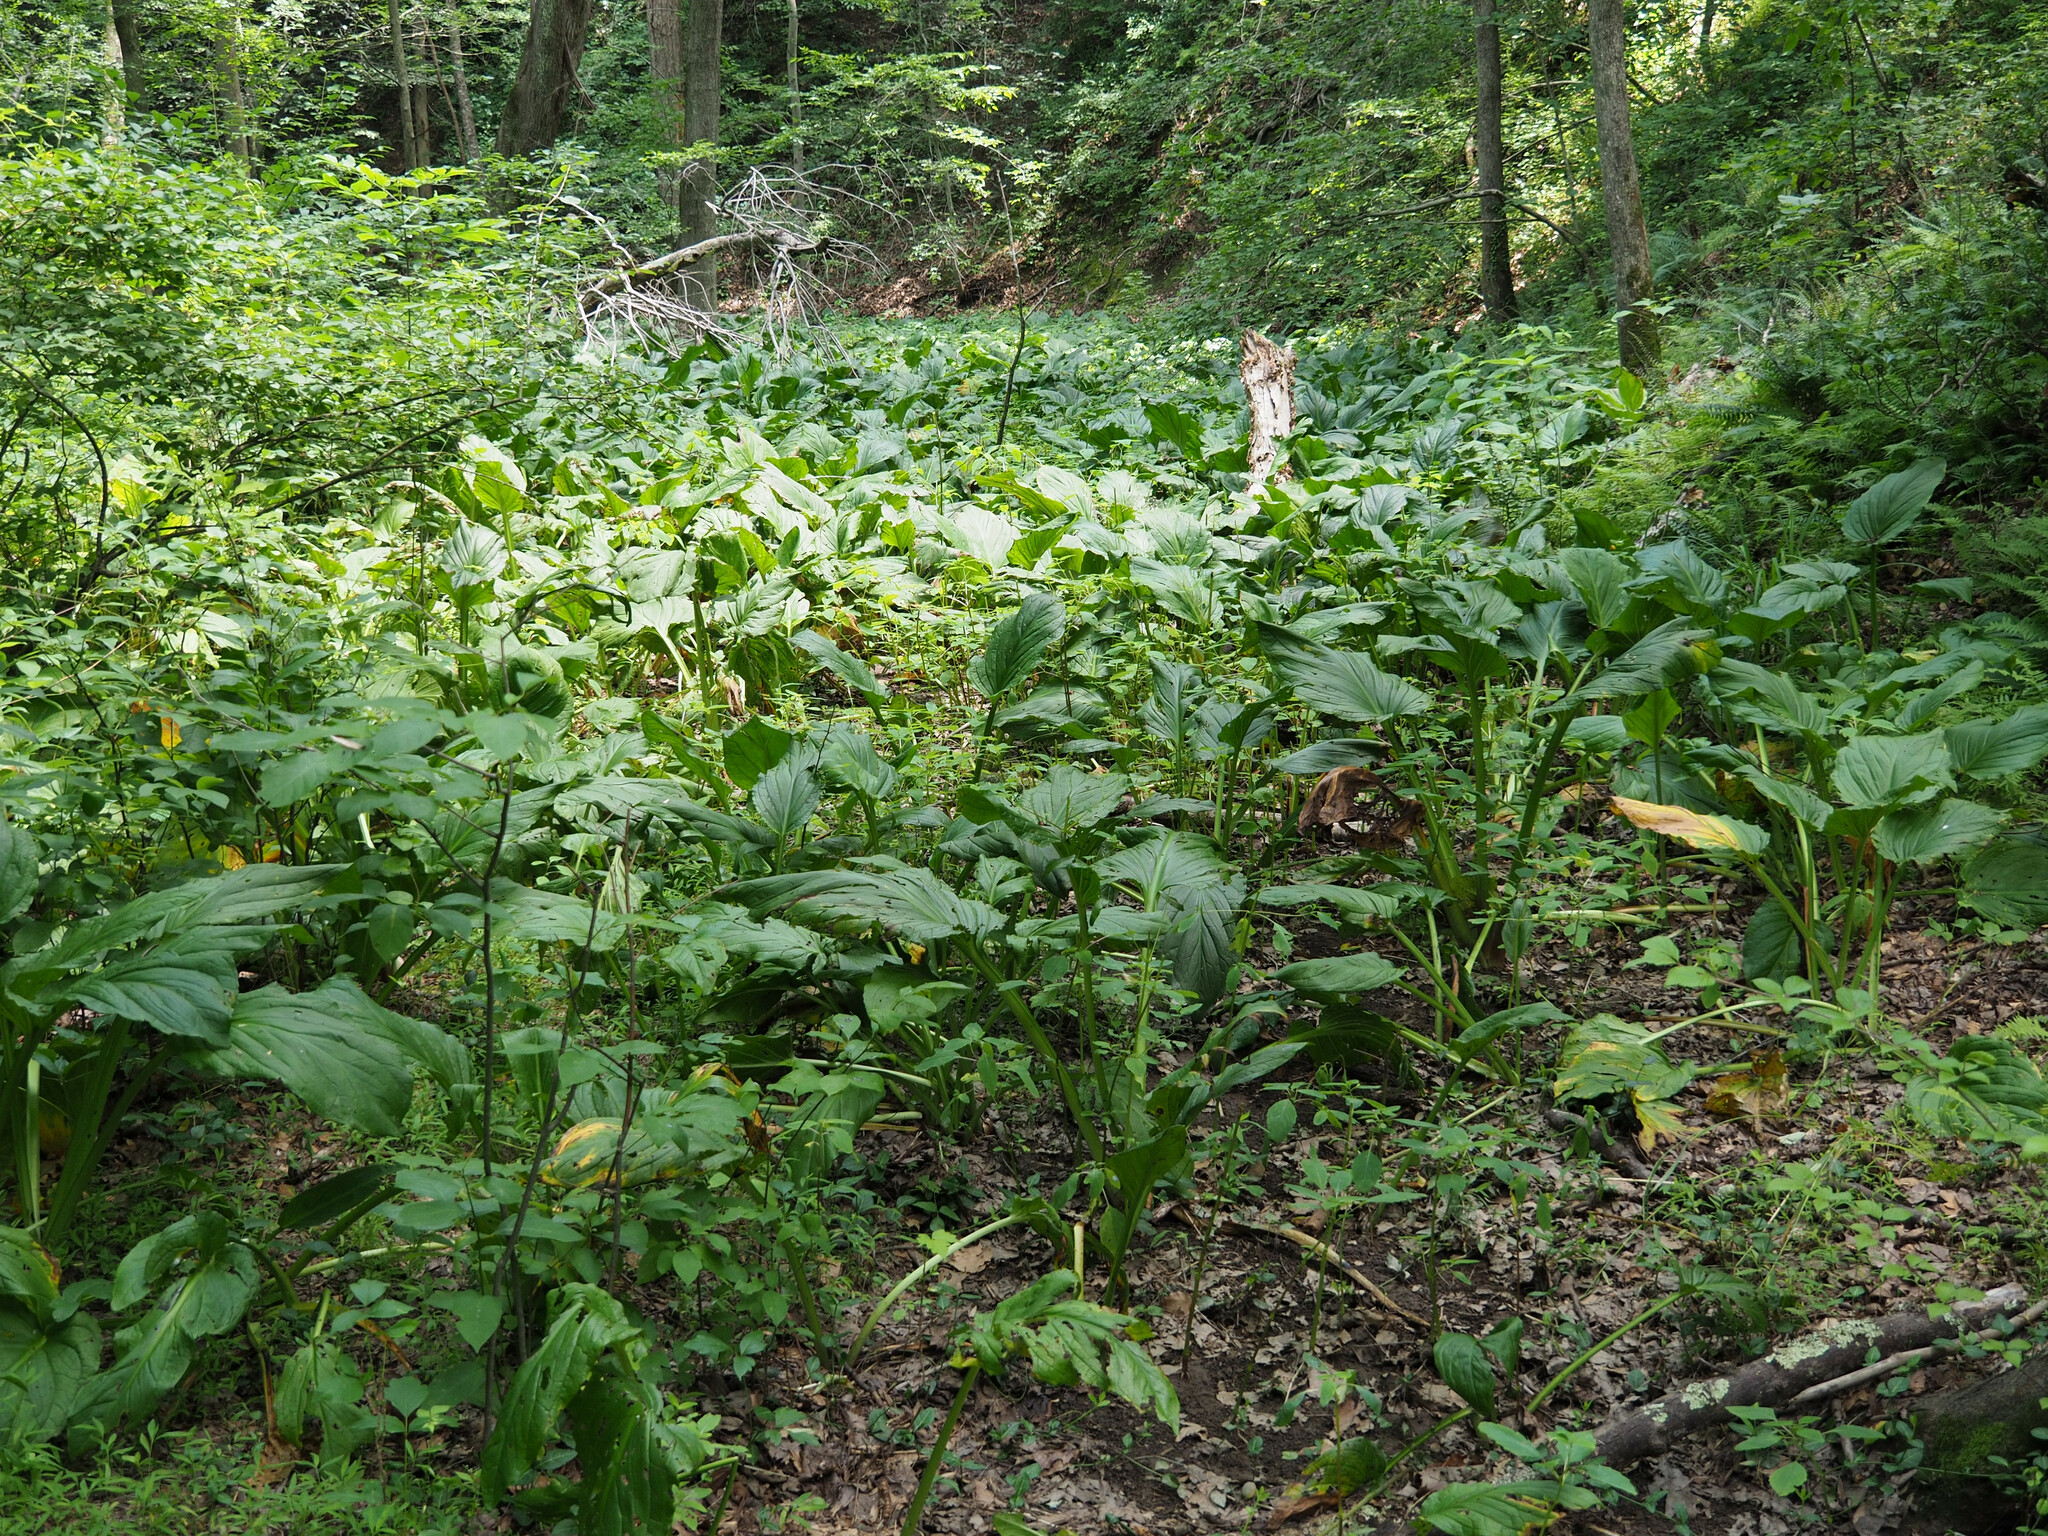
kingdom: Plantae
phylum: Tracheophyta
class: Liliopsida
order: Alismatales
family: Araceae
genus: Symplocarpus
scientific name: Symplocarpus foetidus
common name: Eastern skunk cabbage
